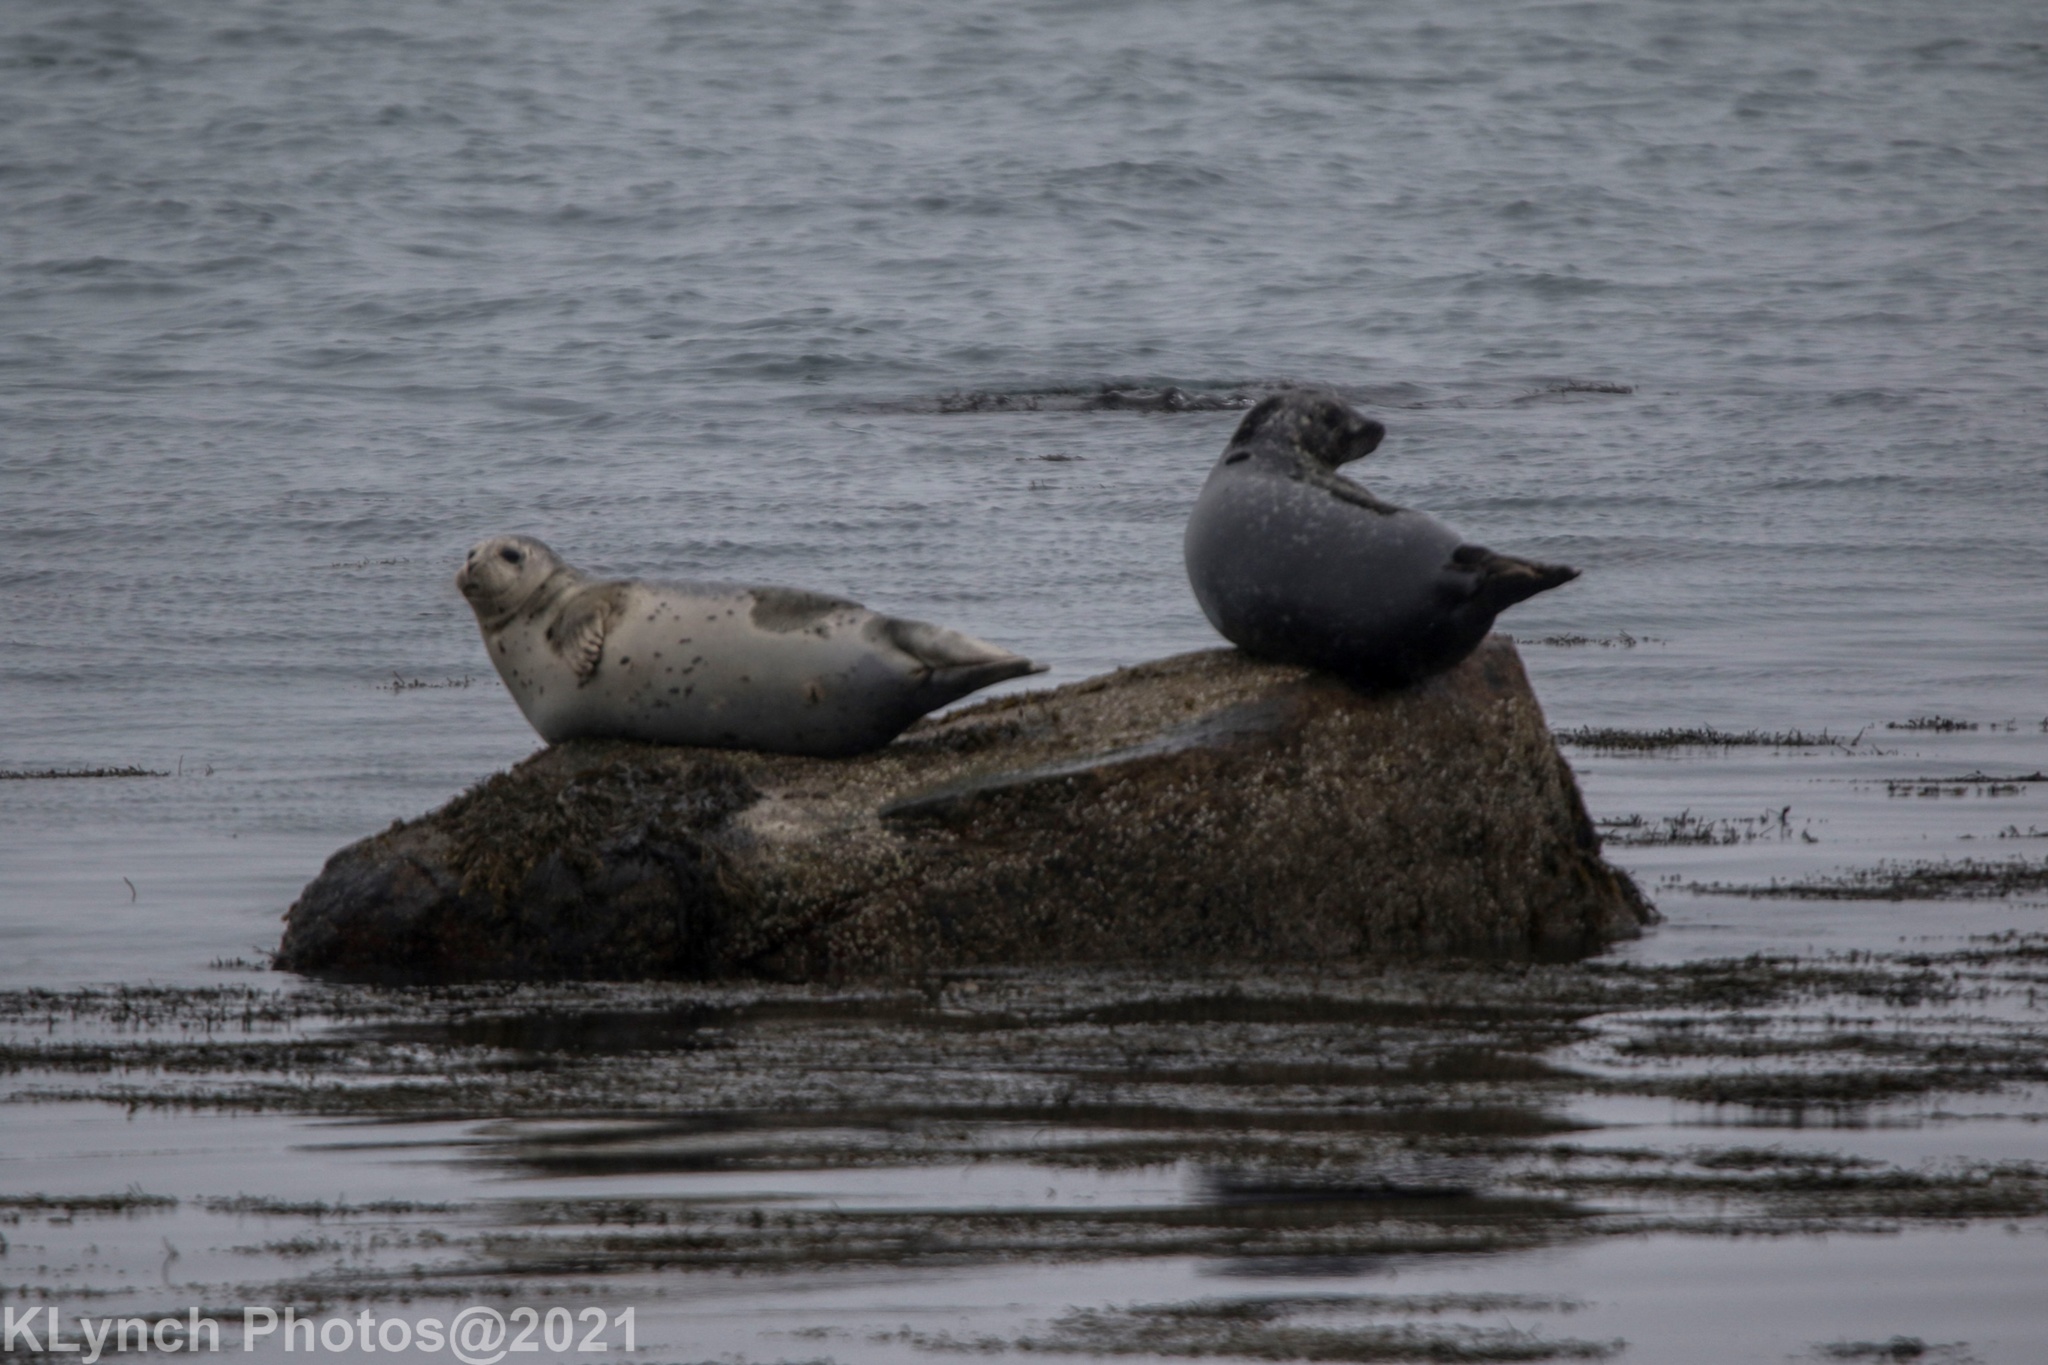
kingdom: Animalia
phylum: Chordata
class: Mammalia
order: Carnivora
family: Phocidae
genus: Phoca
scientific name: Phoca vitulina
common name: Harbor seal
